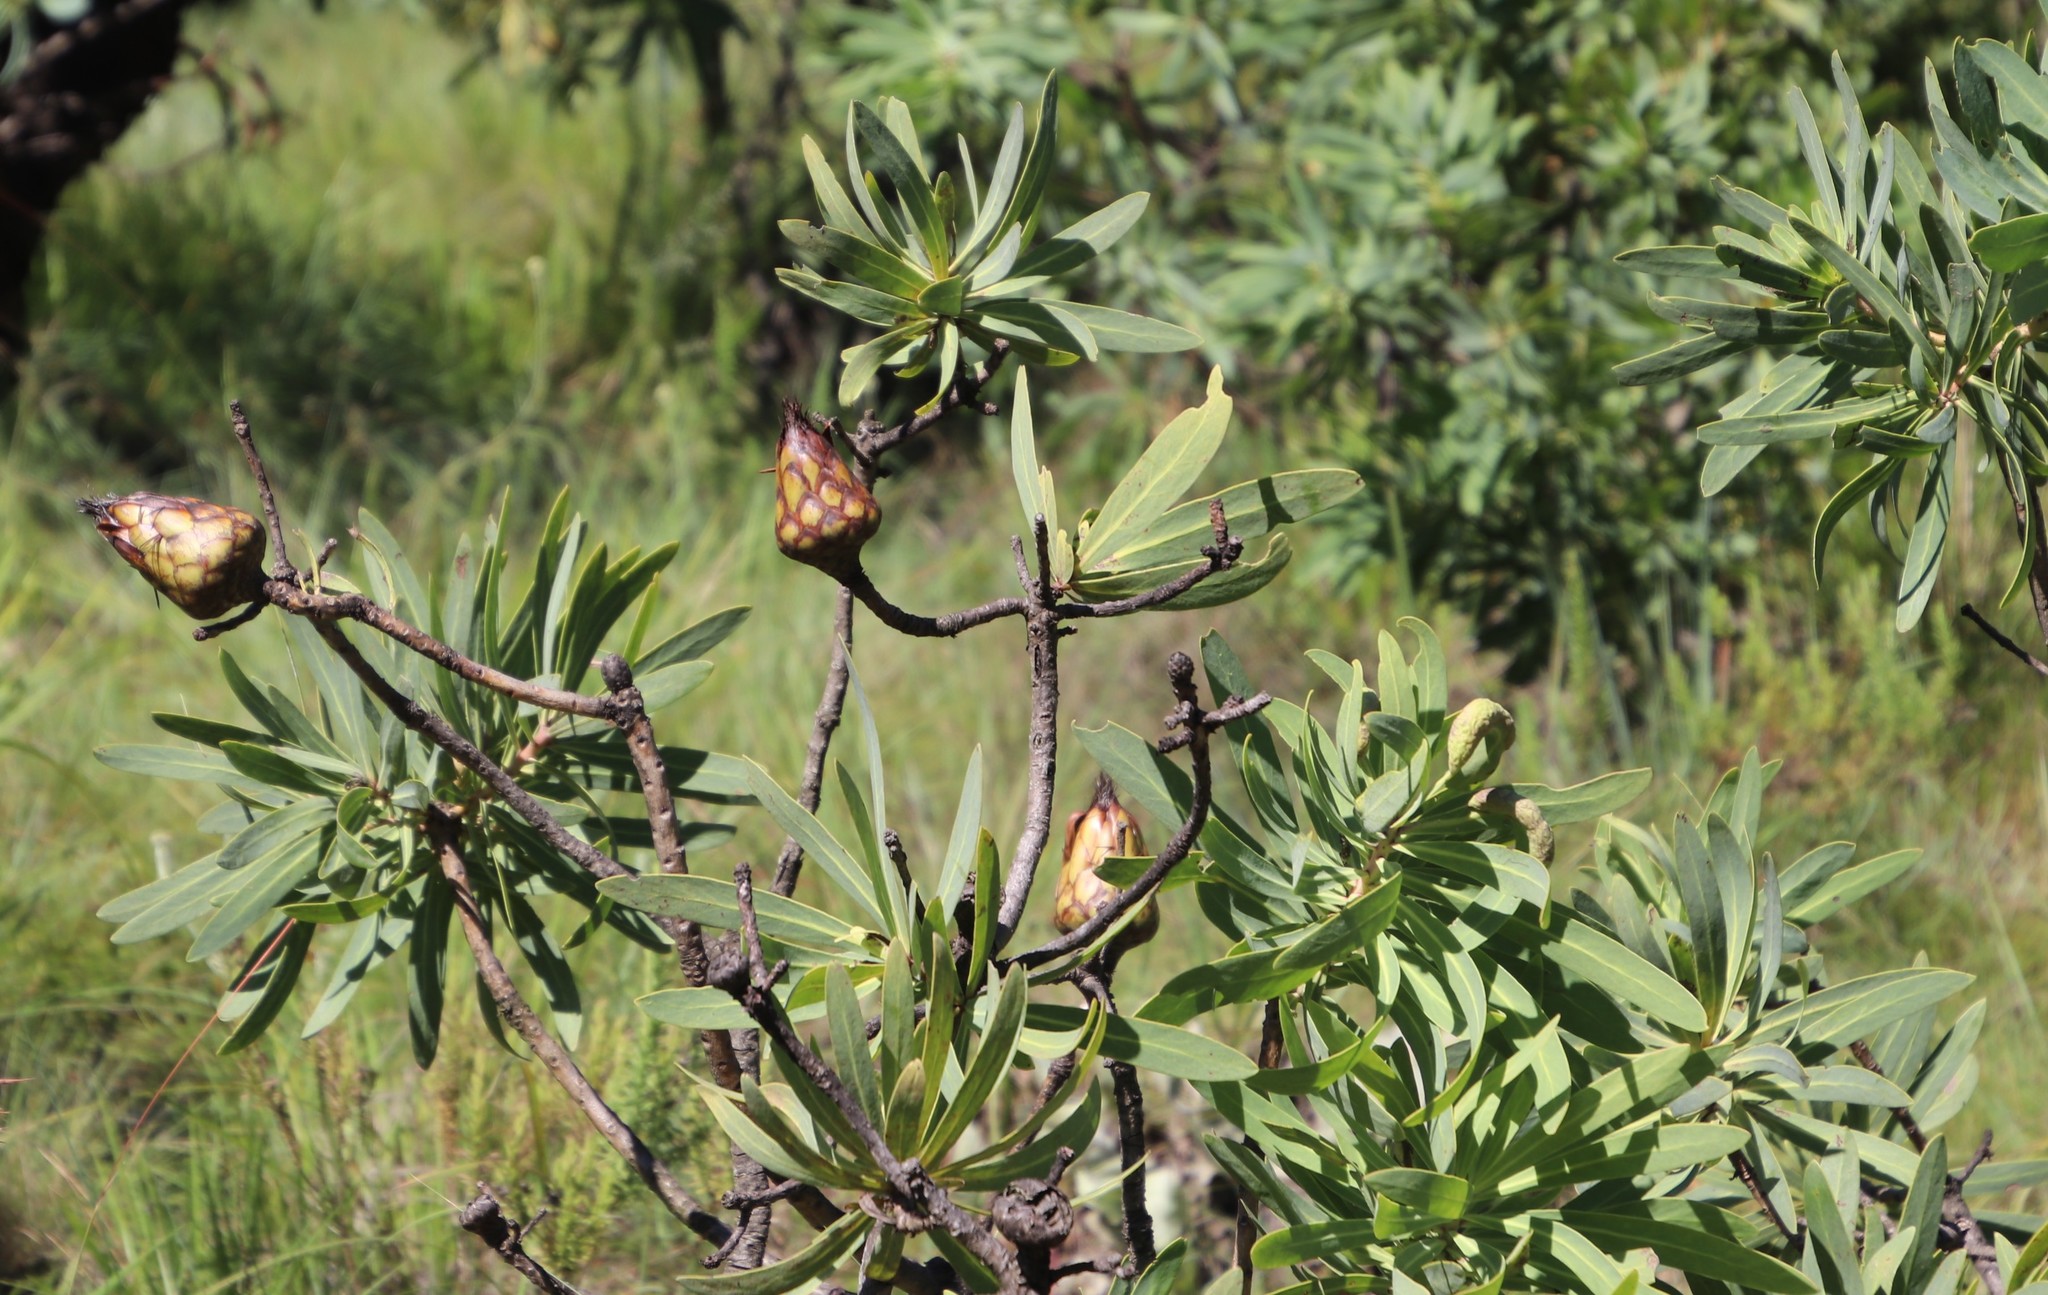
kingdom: Plantae
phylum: Tracheophyta
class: Magnoliopsida
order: Proteales
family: Proteaceae
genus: Protea
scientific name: Protea caffra
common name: Common sugarbush
